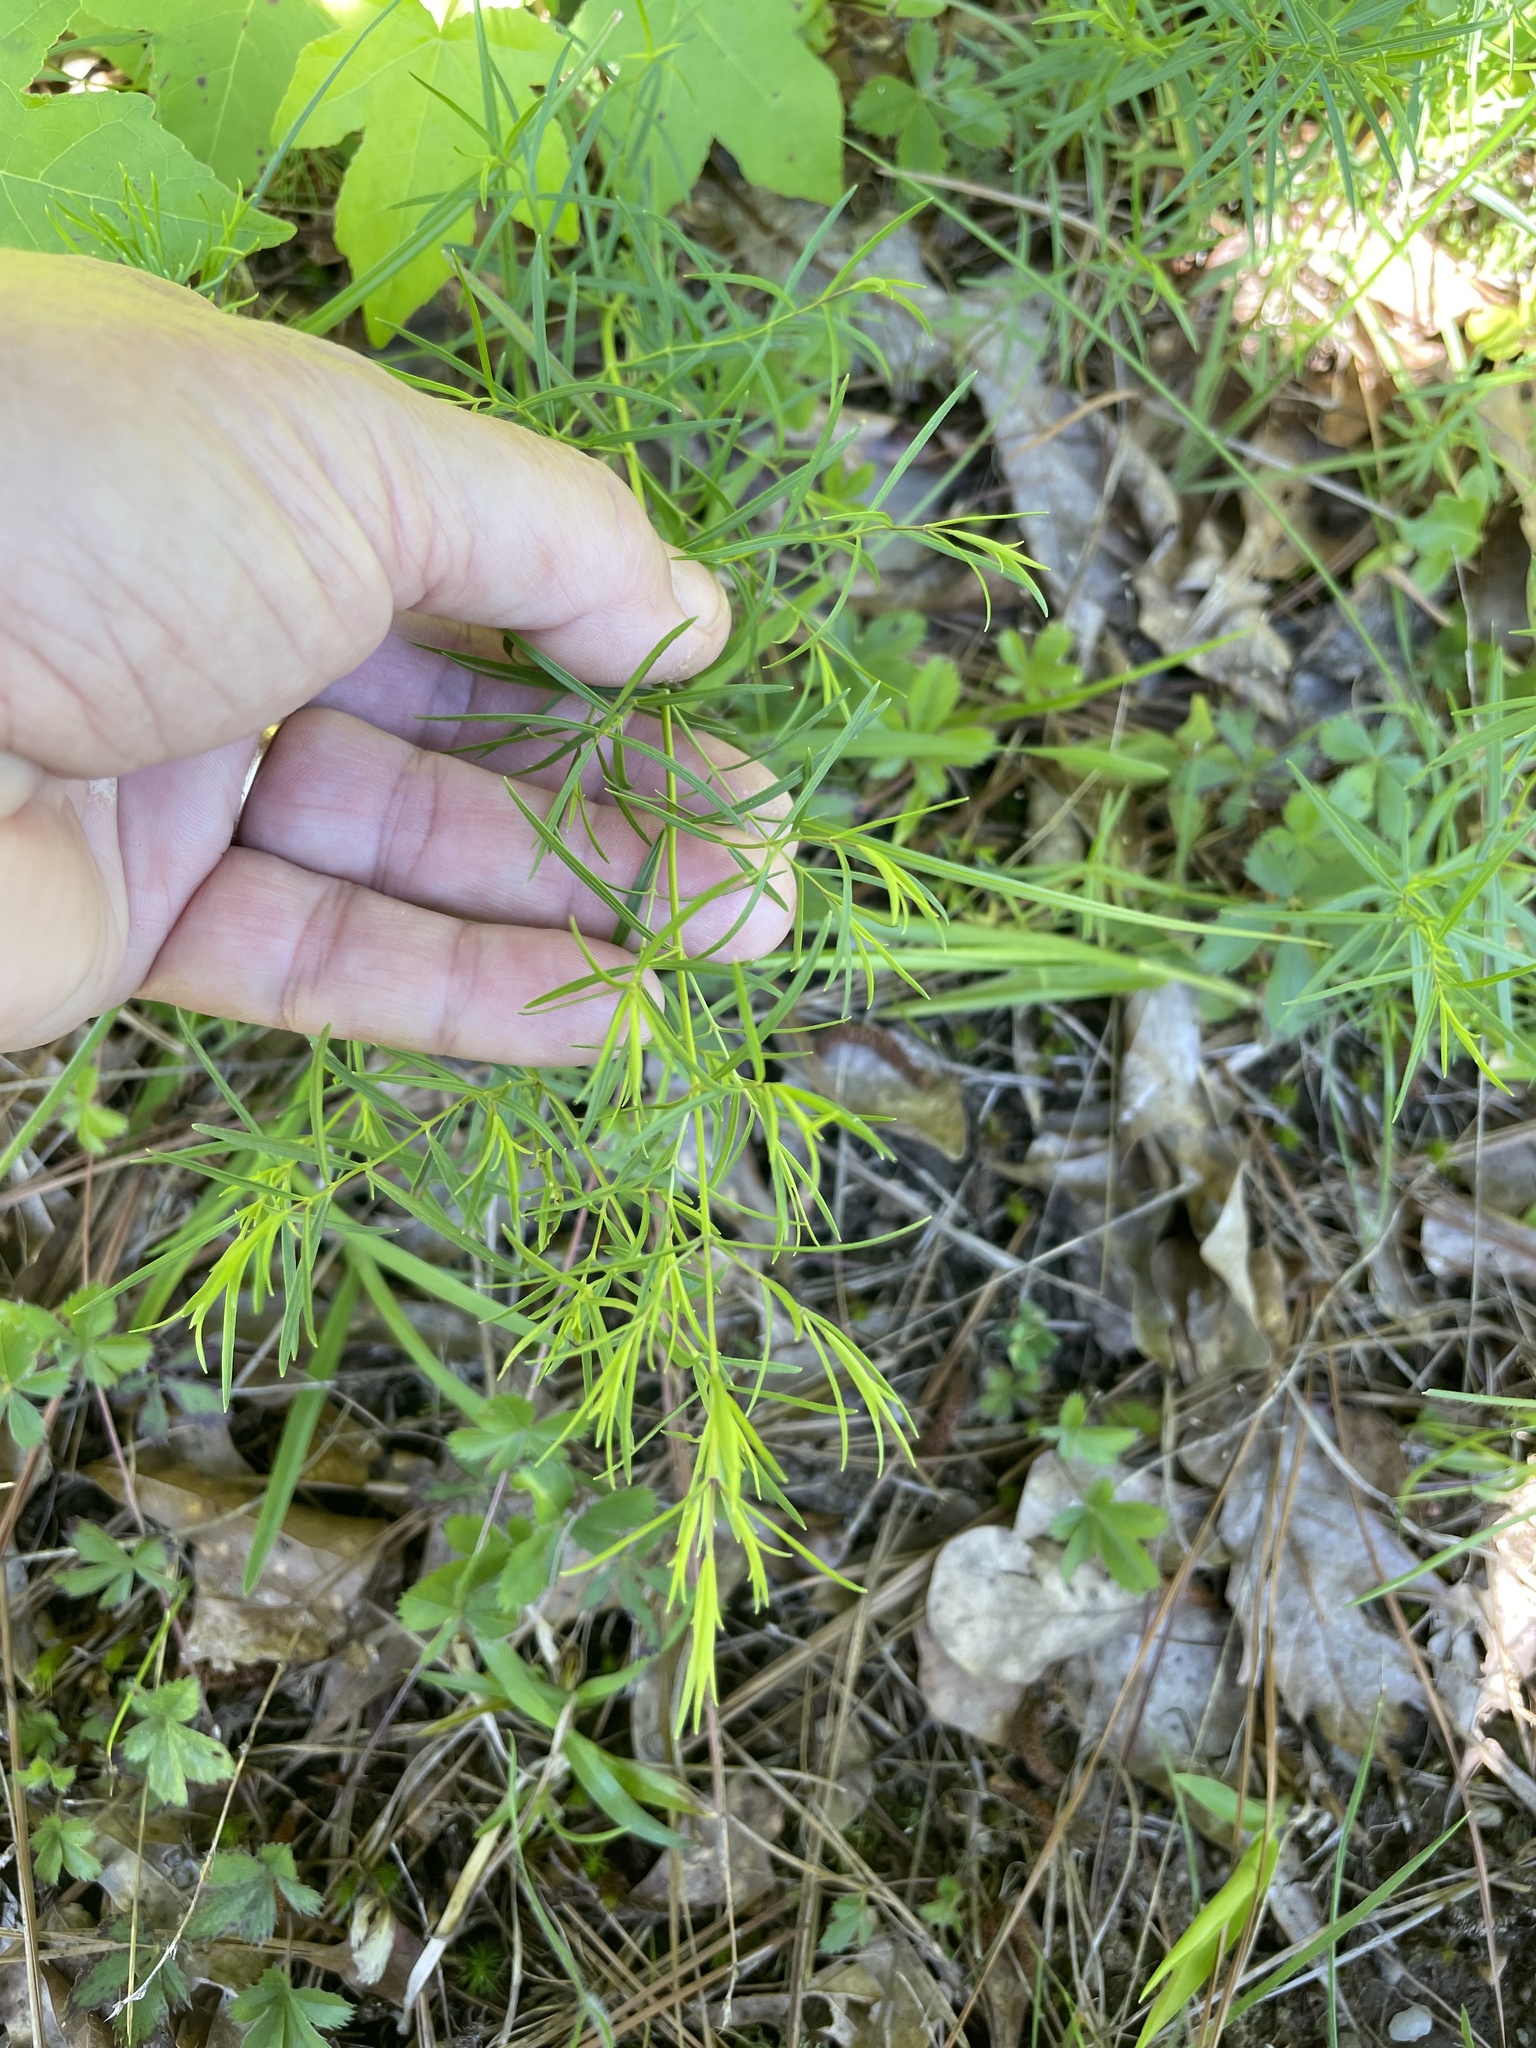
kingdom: Plantae
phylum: Tracheophyta
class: Magnoliopsida
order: Asterales
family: Asteraceae
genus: Coreopsis
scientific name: Coreopsis verticillata
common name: Whorled tickseed
